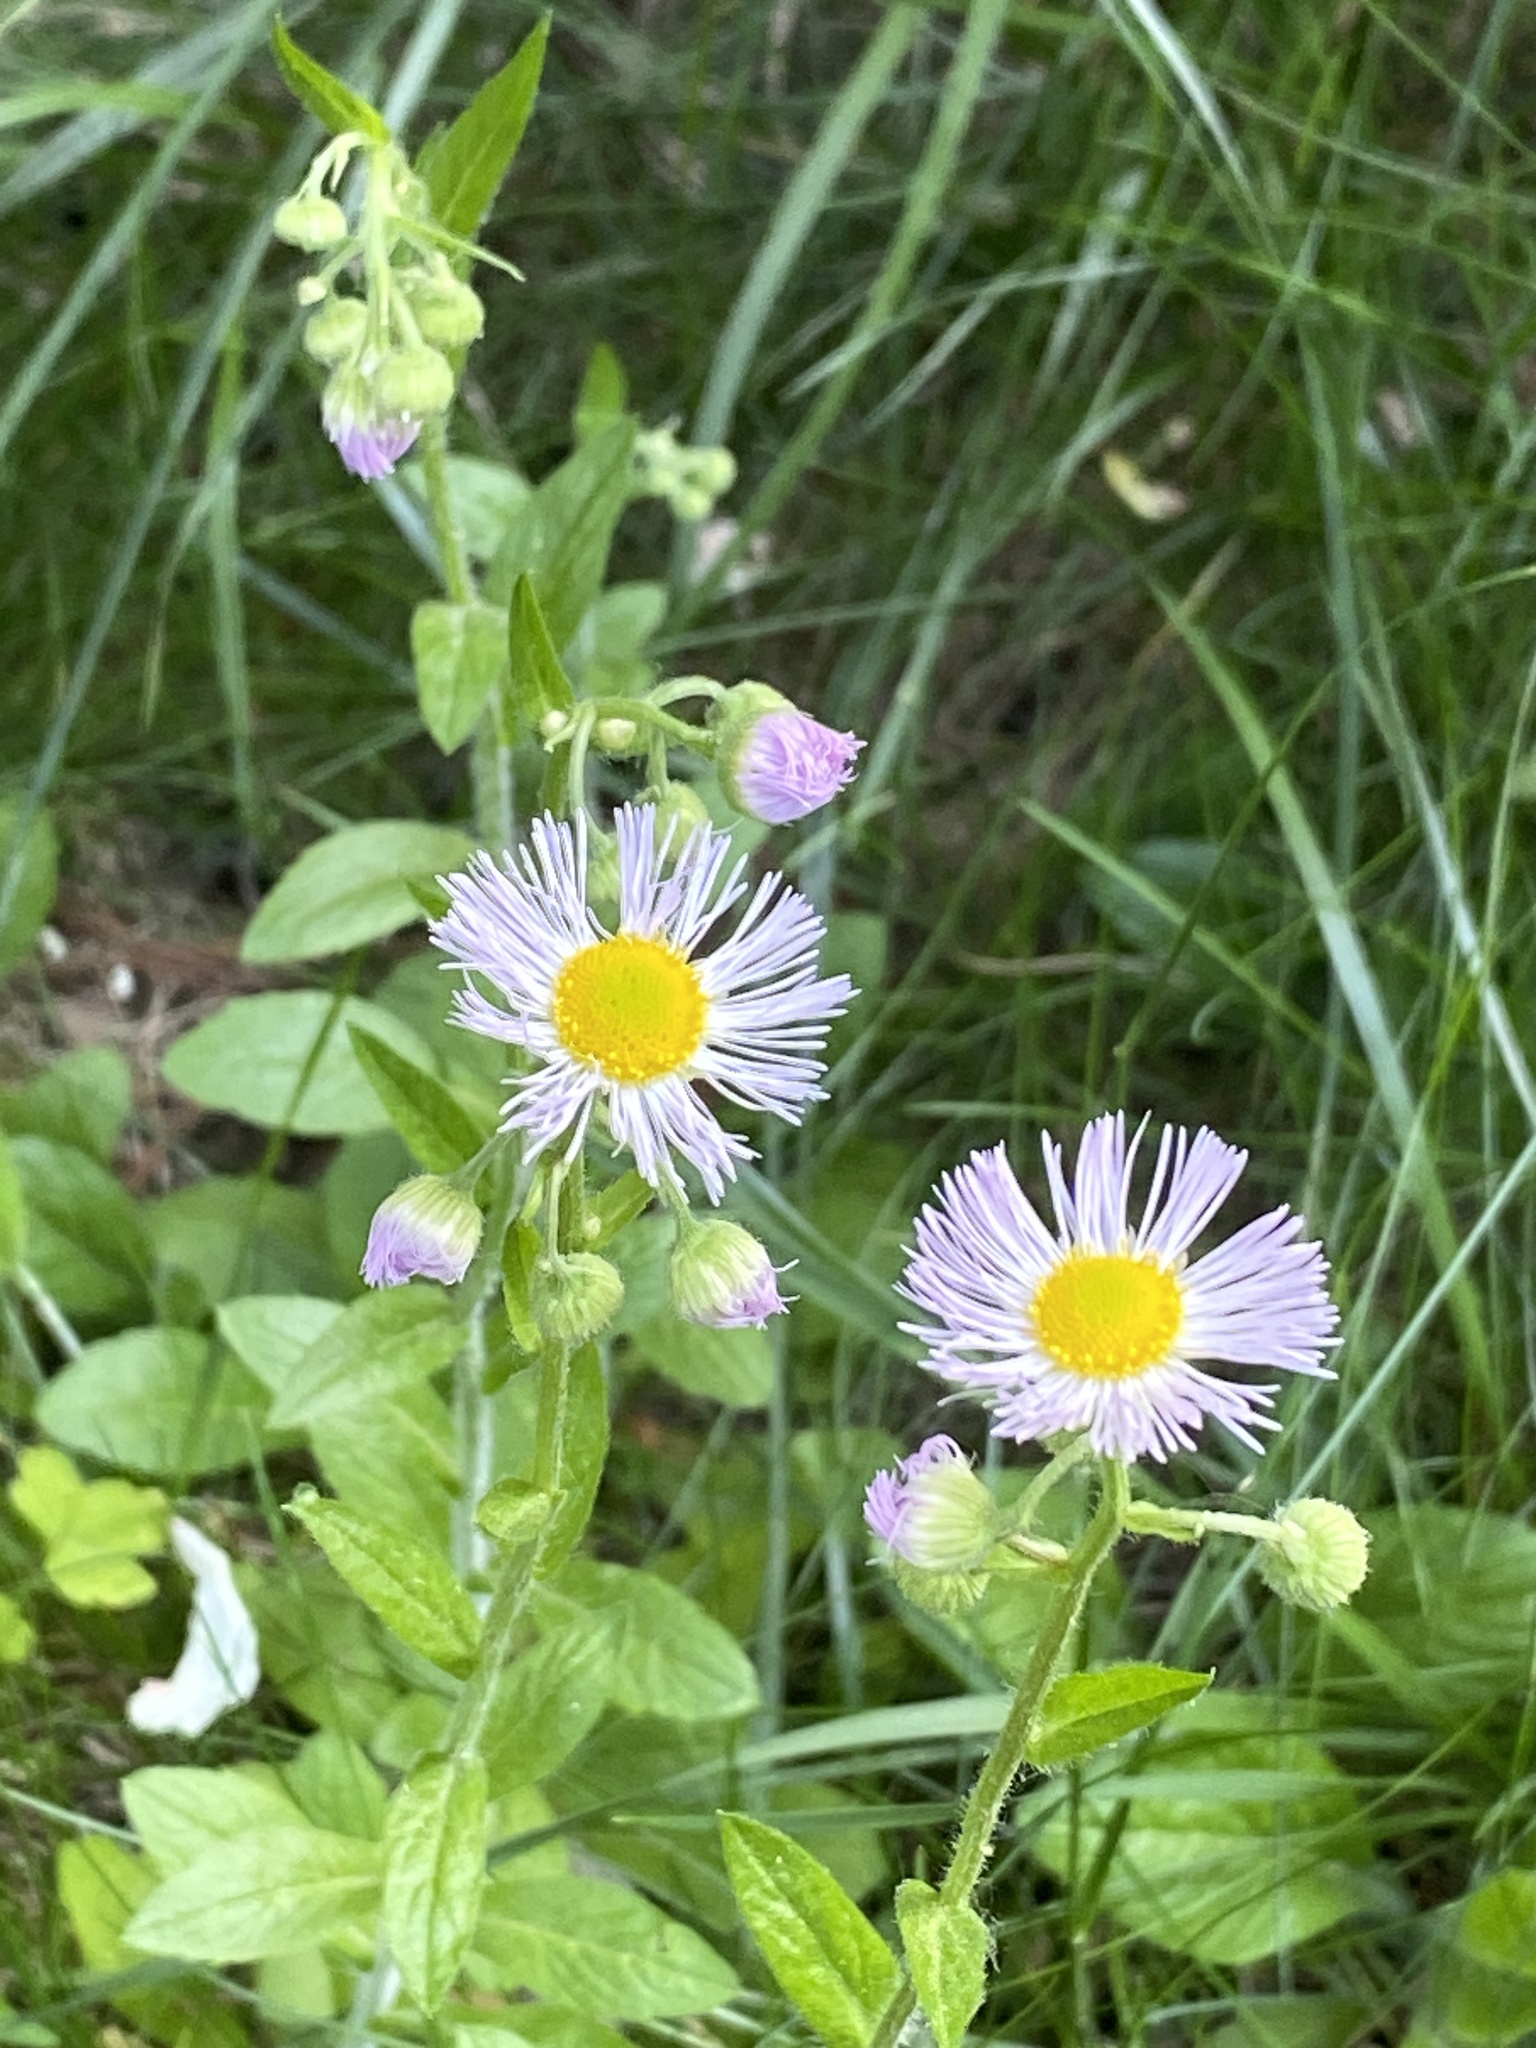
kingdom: Plantae
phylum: Tracheophyta
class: Magnoliopsida
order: Asterales
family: Asteraceae
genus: Erigeron
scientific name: Erigeron philadelphicus
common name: Robin's-plantain
